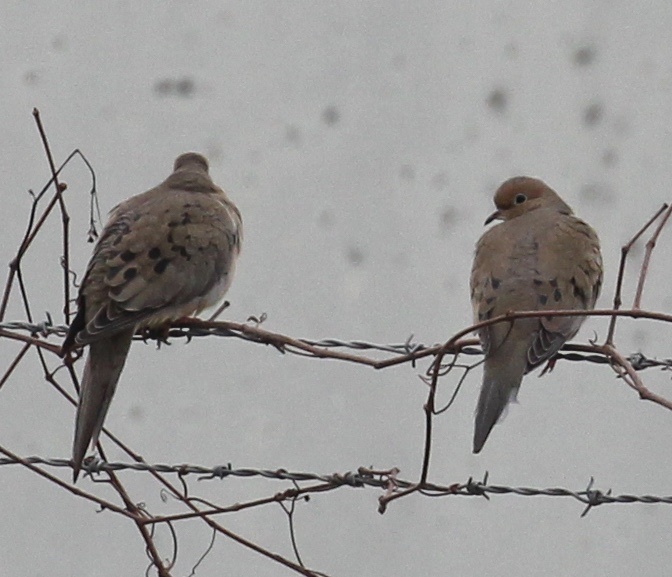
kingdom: Animalia
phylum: Chordata
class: Aves
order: Columbiformes
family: Columbidae
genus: Zenaida
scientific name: Zenaida macroura
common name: Mourning dove
